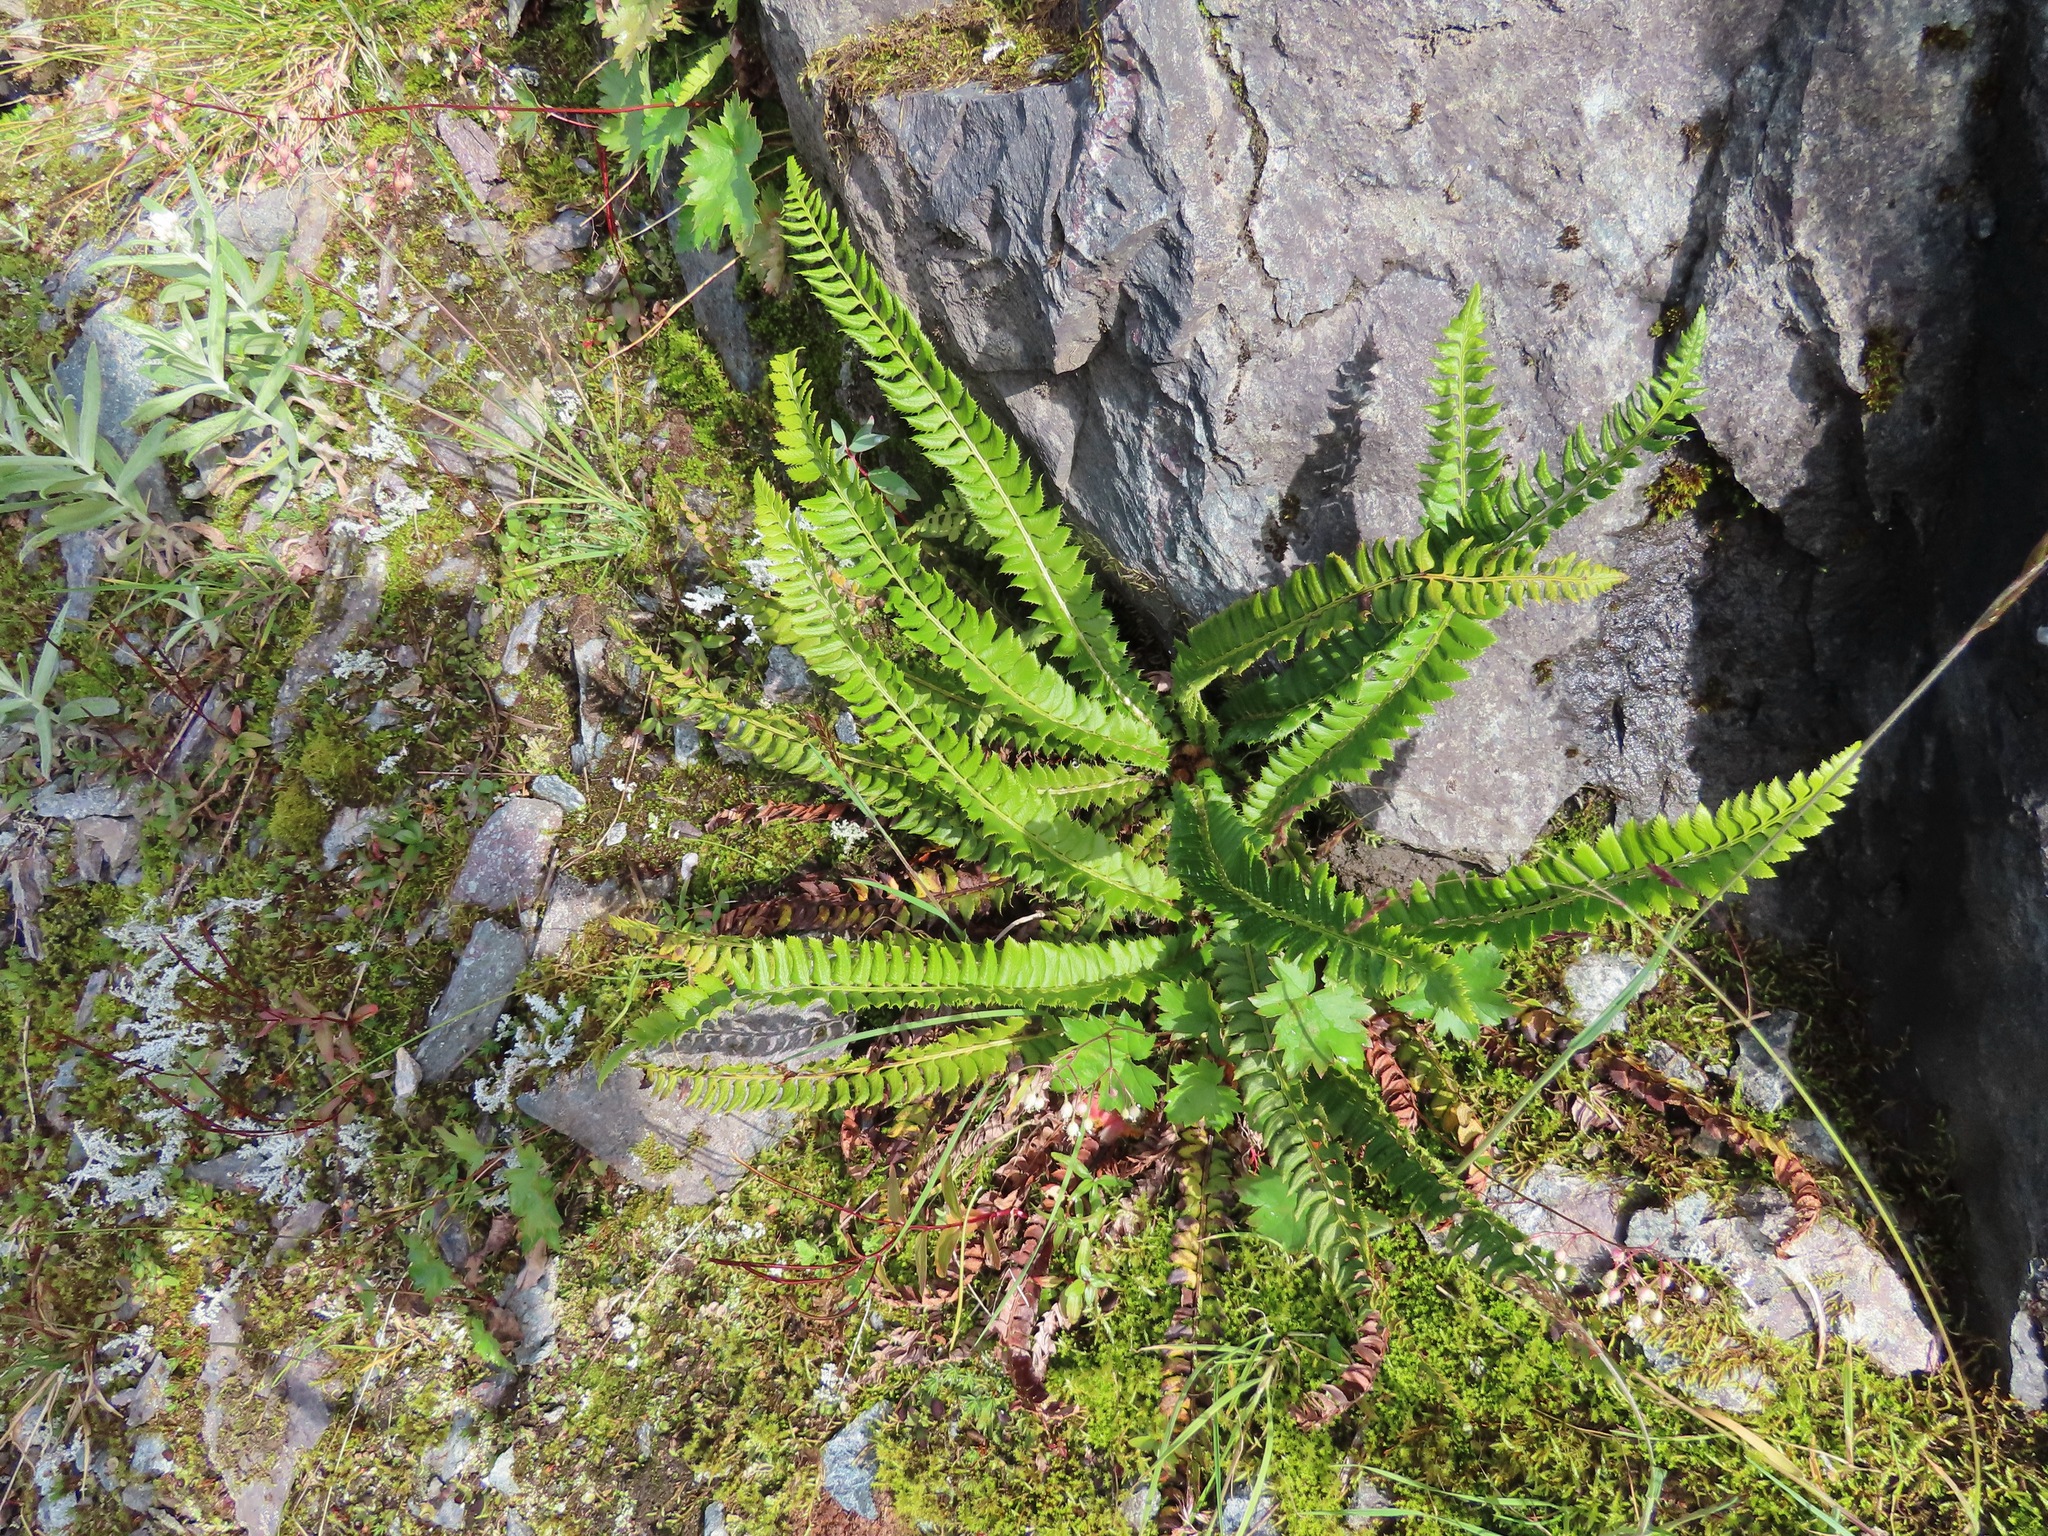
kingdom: Plantae
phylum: Tracheophyta
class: Polypodiopsida
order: Polypodiales
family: Dryopteridaceae
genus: Polystichum
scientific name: Polystichum lonchitis
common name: Holly fern
